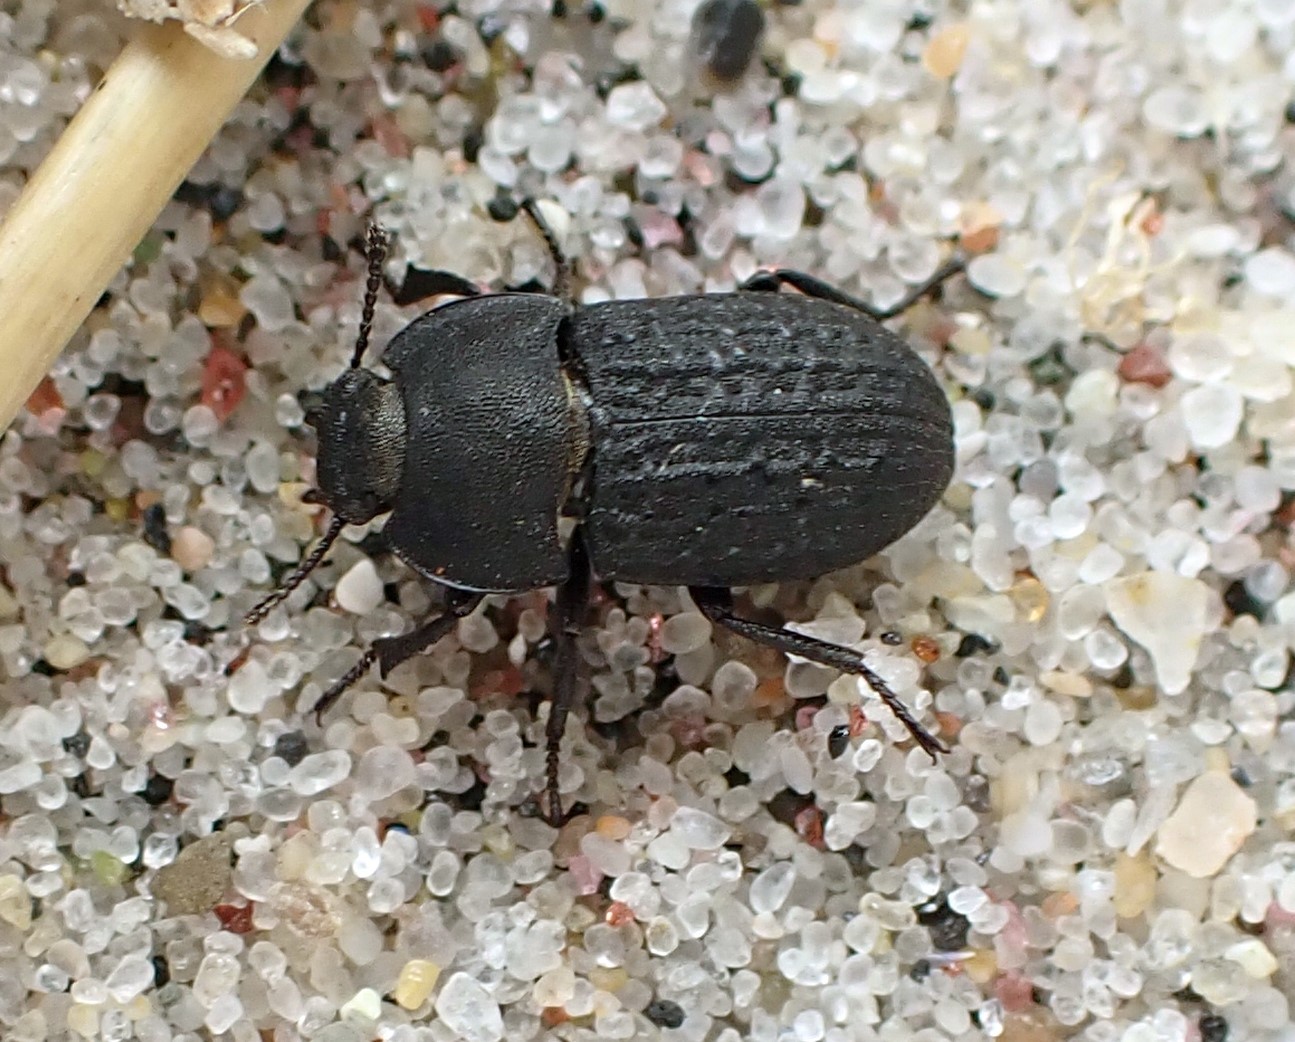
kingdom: Animalia
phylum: Arthropoda
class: Insecta
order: Coleoptera
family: Tenebrionidae
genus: Opatrum
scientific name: Opatrum sabulosum
